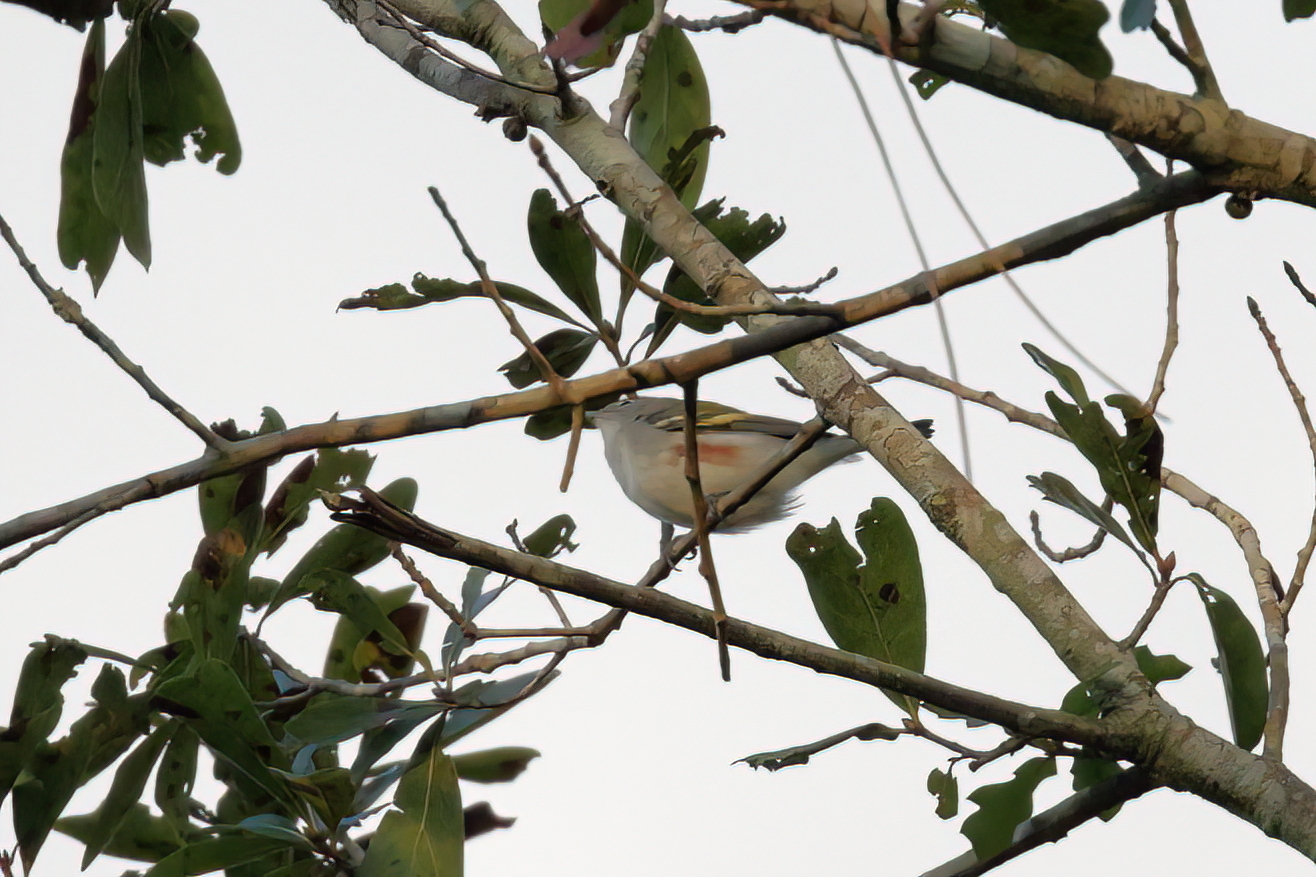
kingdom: Animalia
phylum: Chordata
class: Aves
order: Passeriformes
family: Parulidae
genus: Setophaga
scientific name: Setophaga pensylvanica
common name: Chestnut-sided warbler
